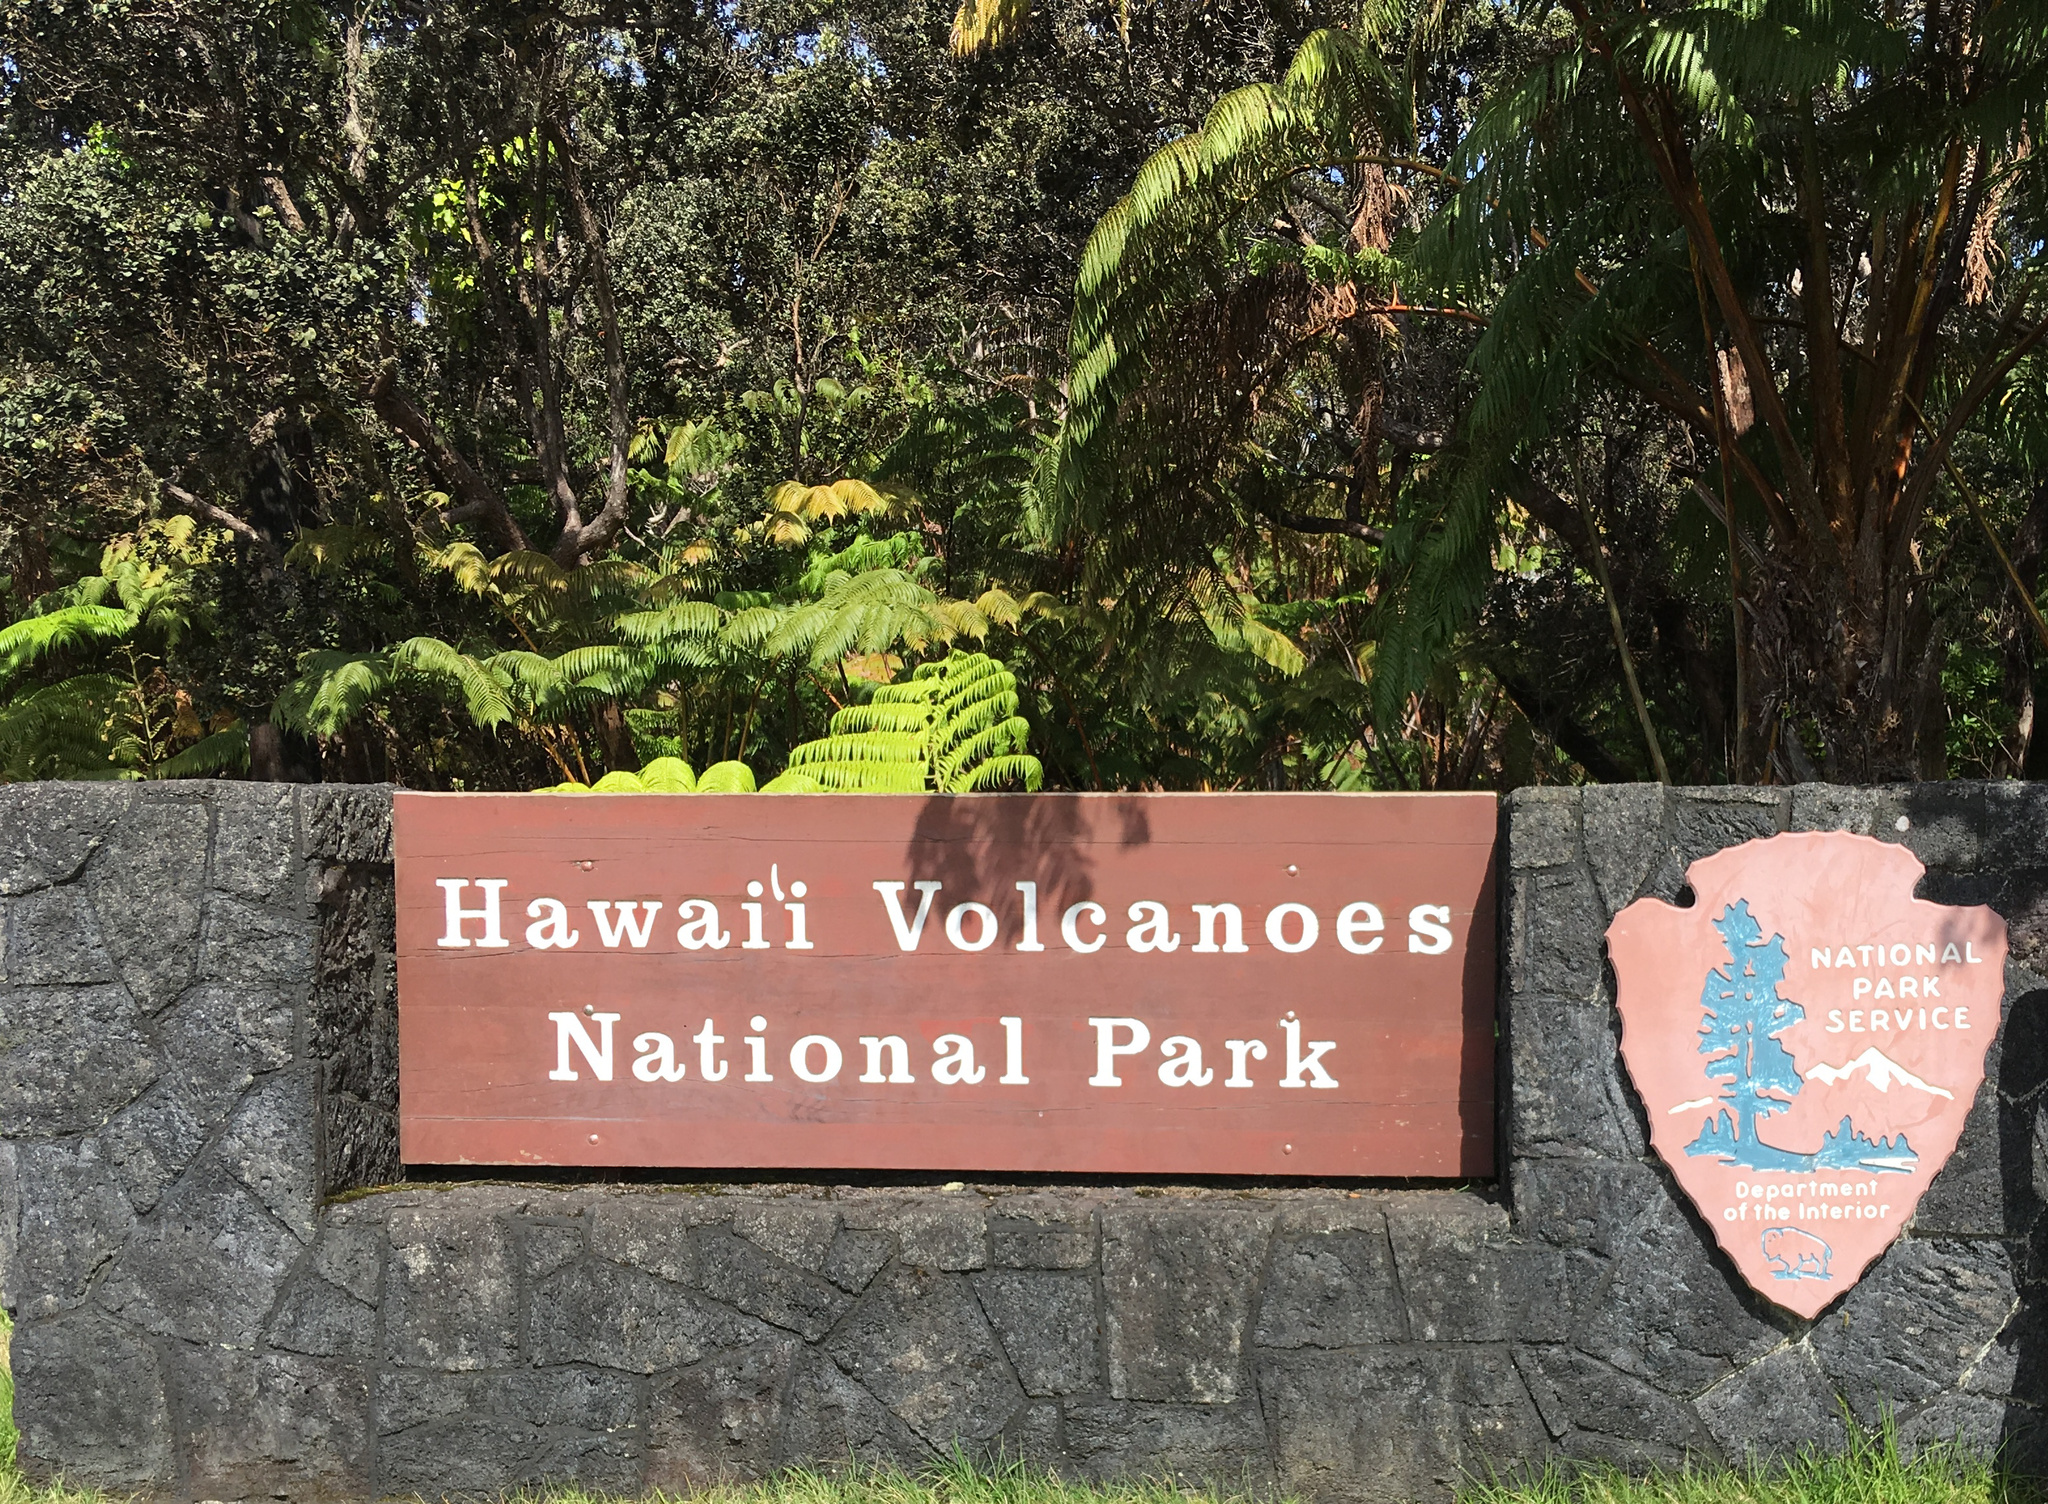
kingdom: Plantae
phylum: Tracheophyta
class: Magnoliopsida
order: Myrtales
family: Myrtaceae
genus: Metrosideros
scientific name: Metrosideros polymorpha
